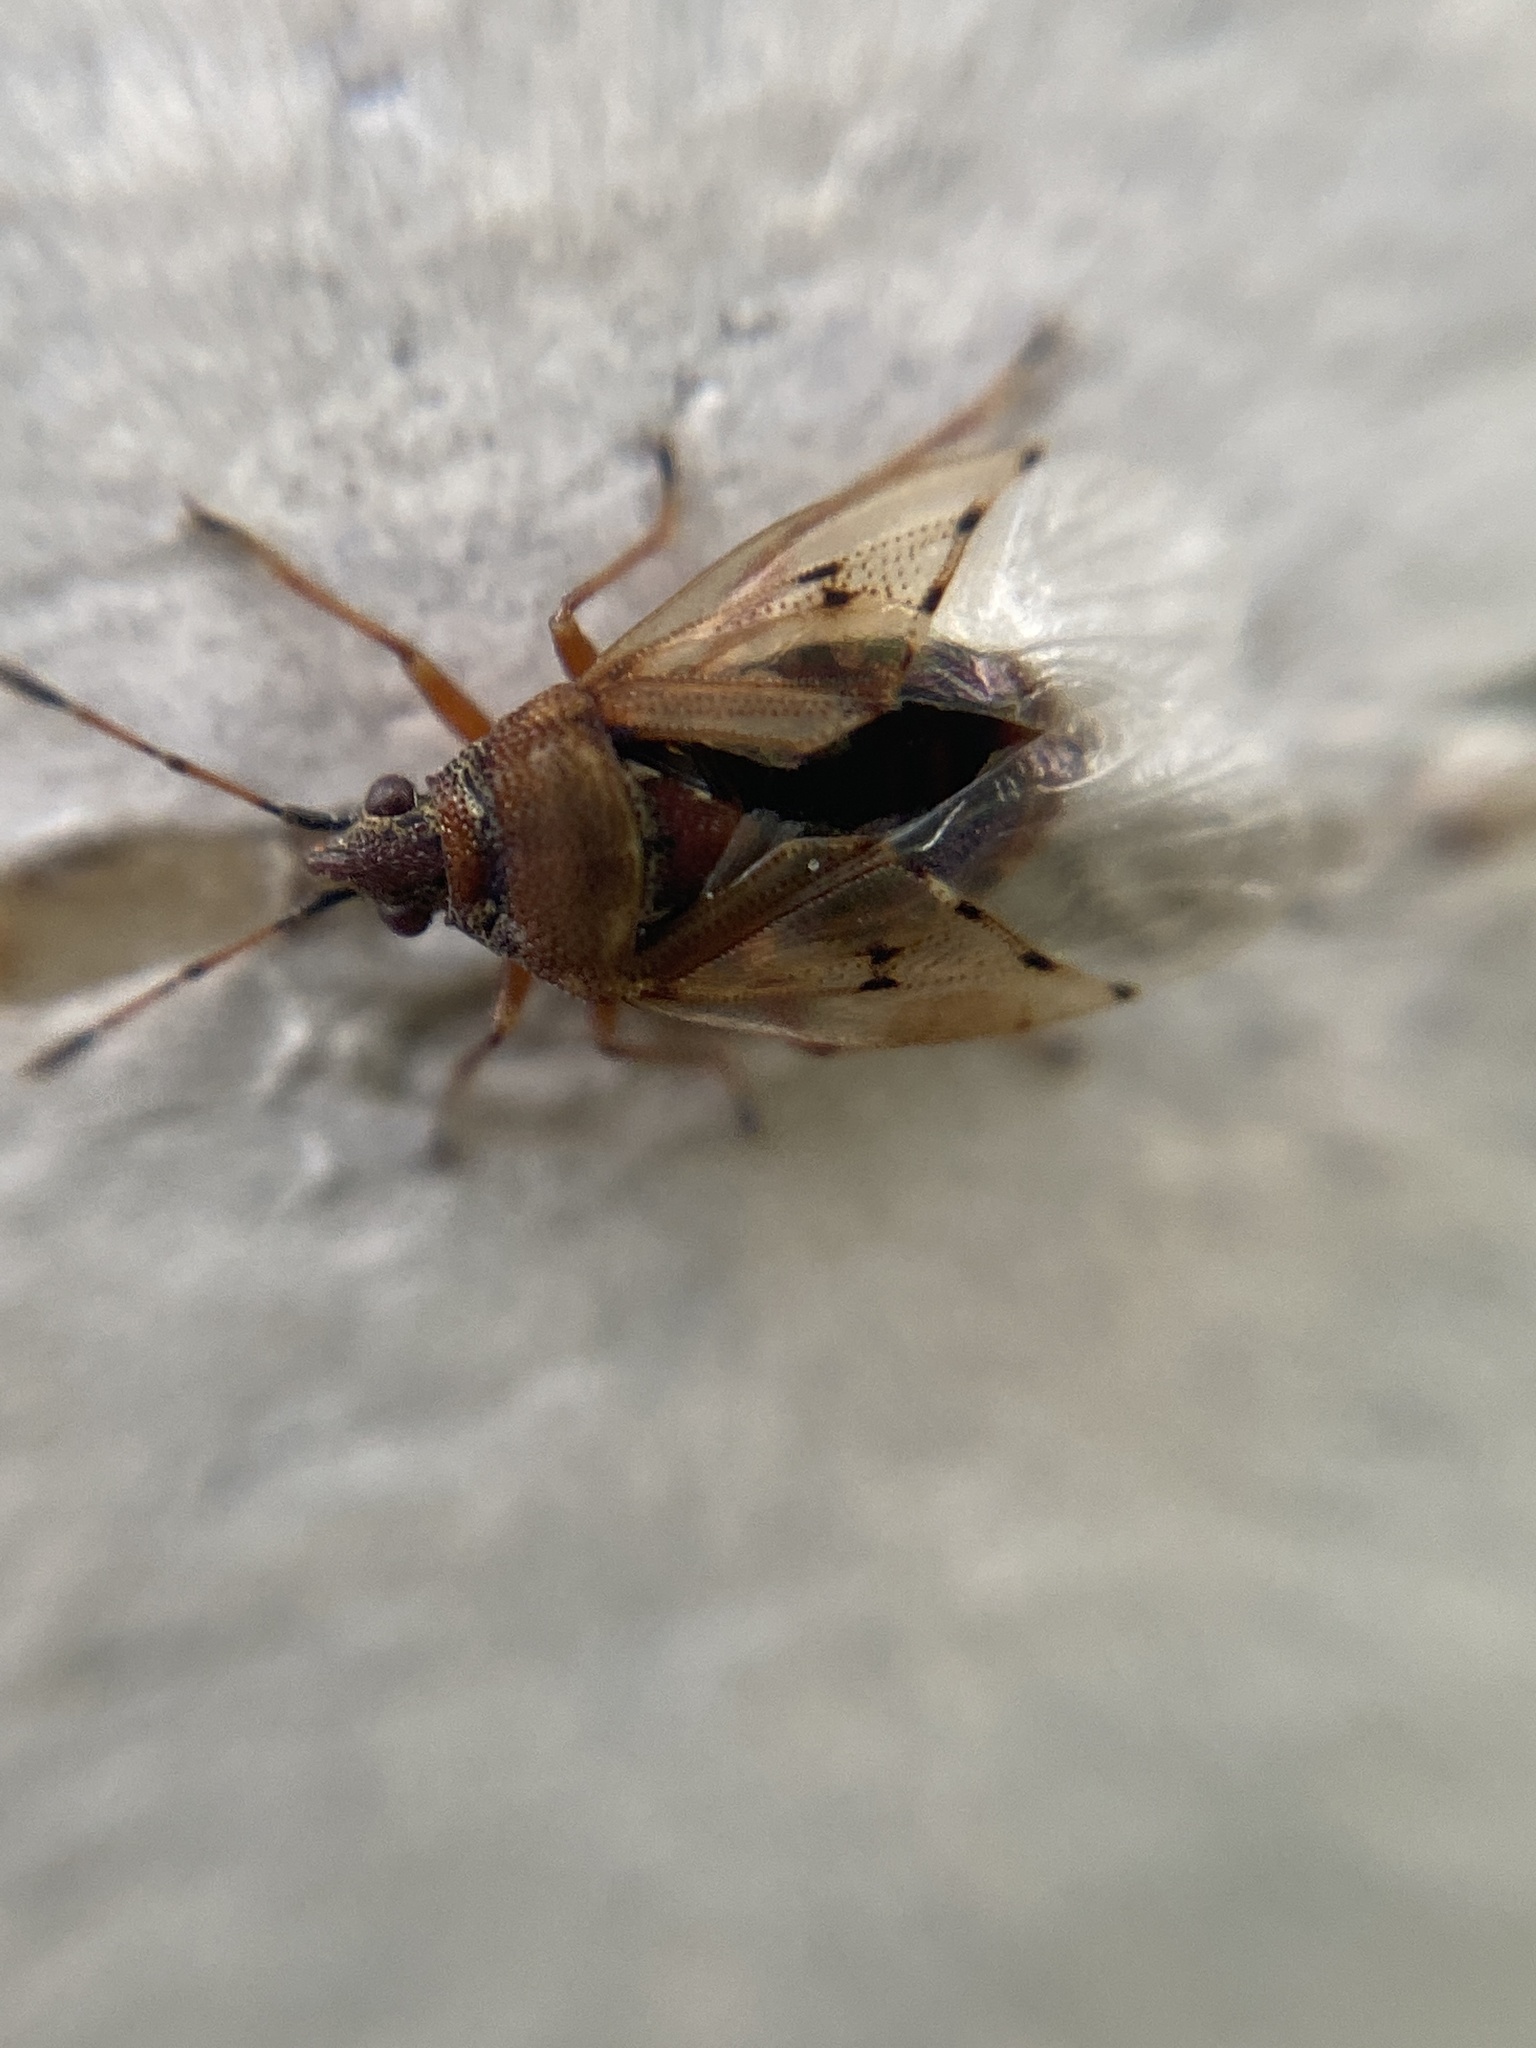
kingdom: Animalia
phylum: Arthropoda
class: Insecta
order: Hemiptera
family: Lygaeidae
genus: Kleidocerys
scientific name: Kleidocerys resedae
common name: Birch catkin bug
